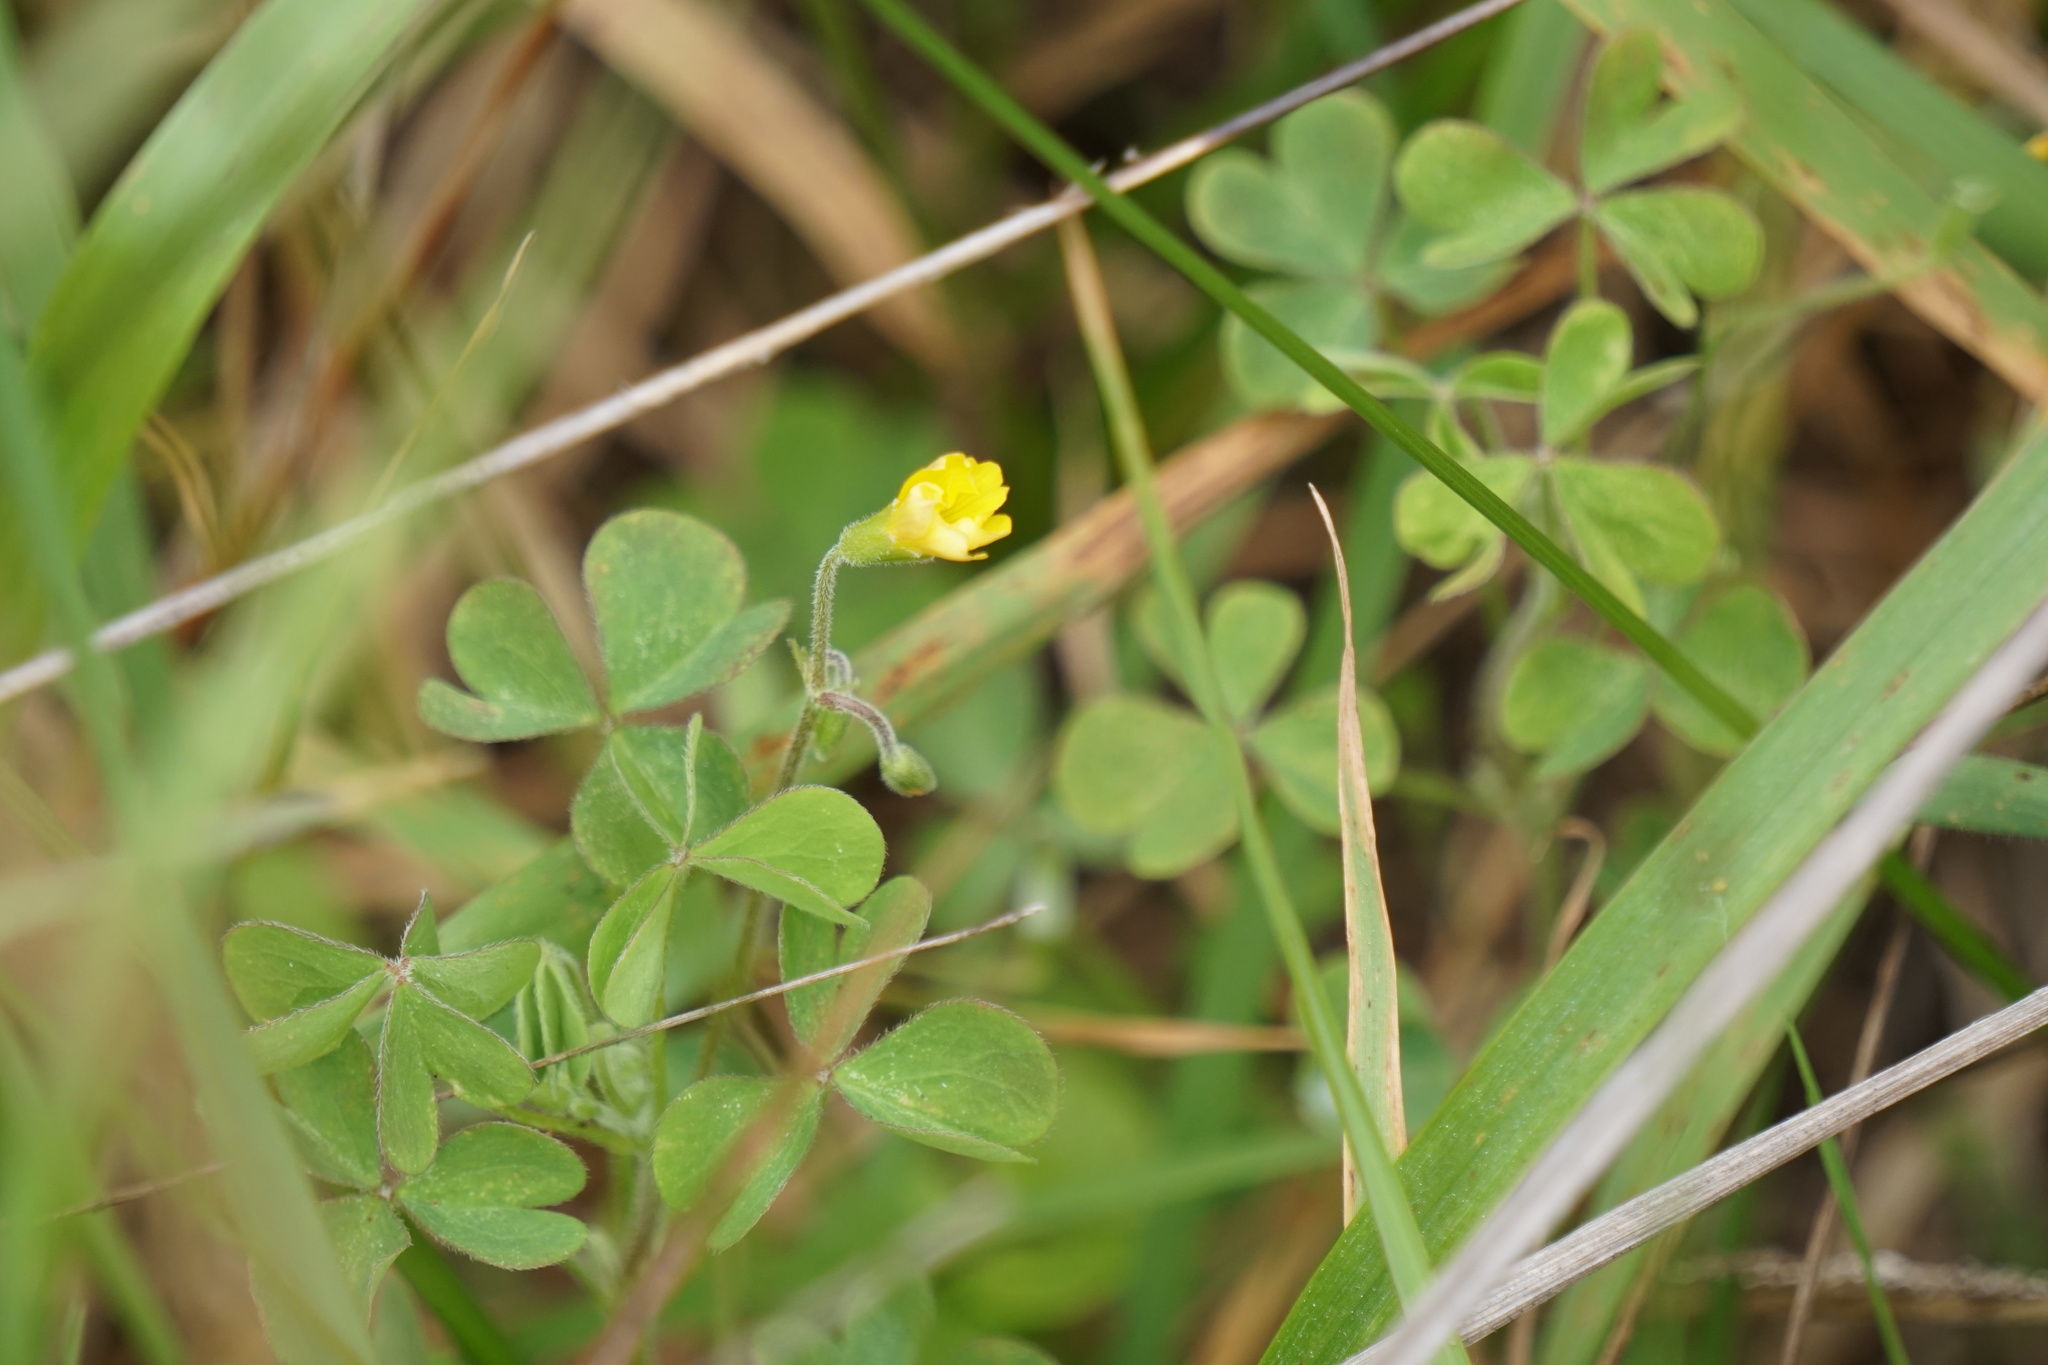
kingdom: Plantae
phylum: Tracheophyta
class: Magnoliopsida
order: Oxalidales
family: Oxalidaceae
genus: Oxalis
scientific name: Oxalis pilosa
